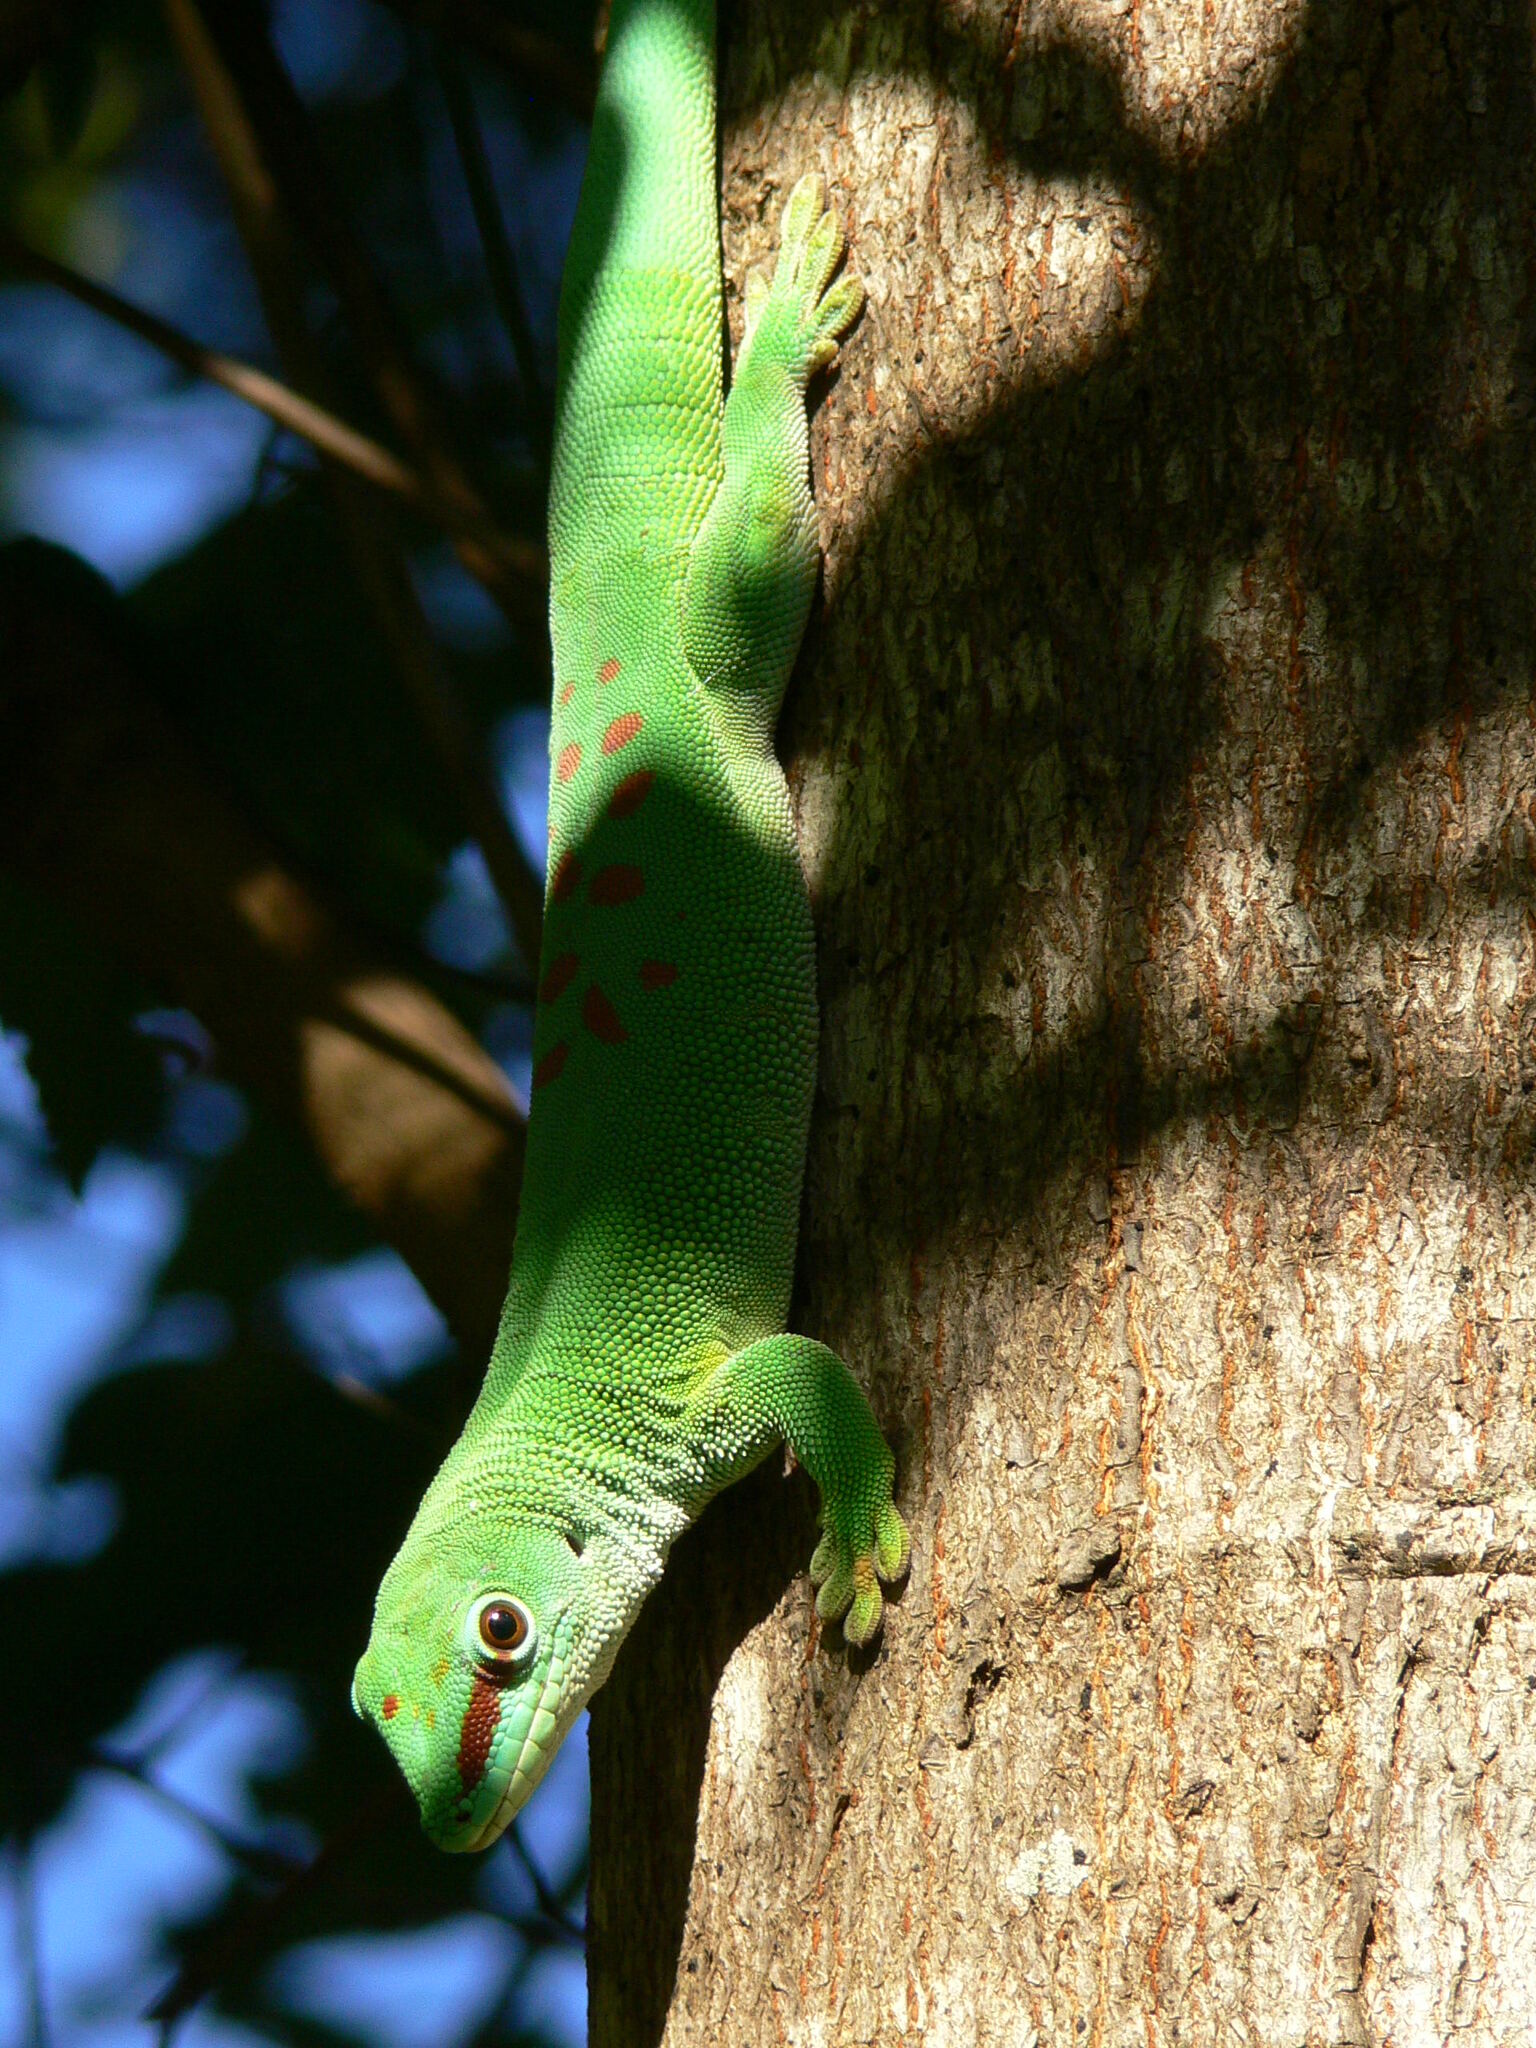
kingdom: Animalia
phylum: Chordata
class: Squamata
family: Gekkonidae
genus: Phelsuma
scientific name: Phelsuma grandis
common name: Madagascar giant day gecko
